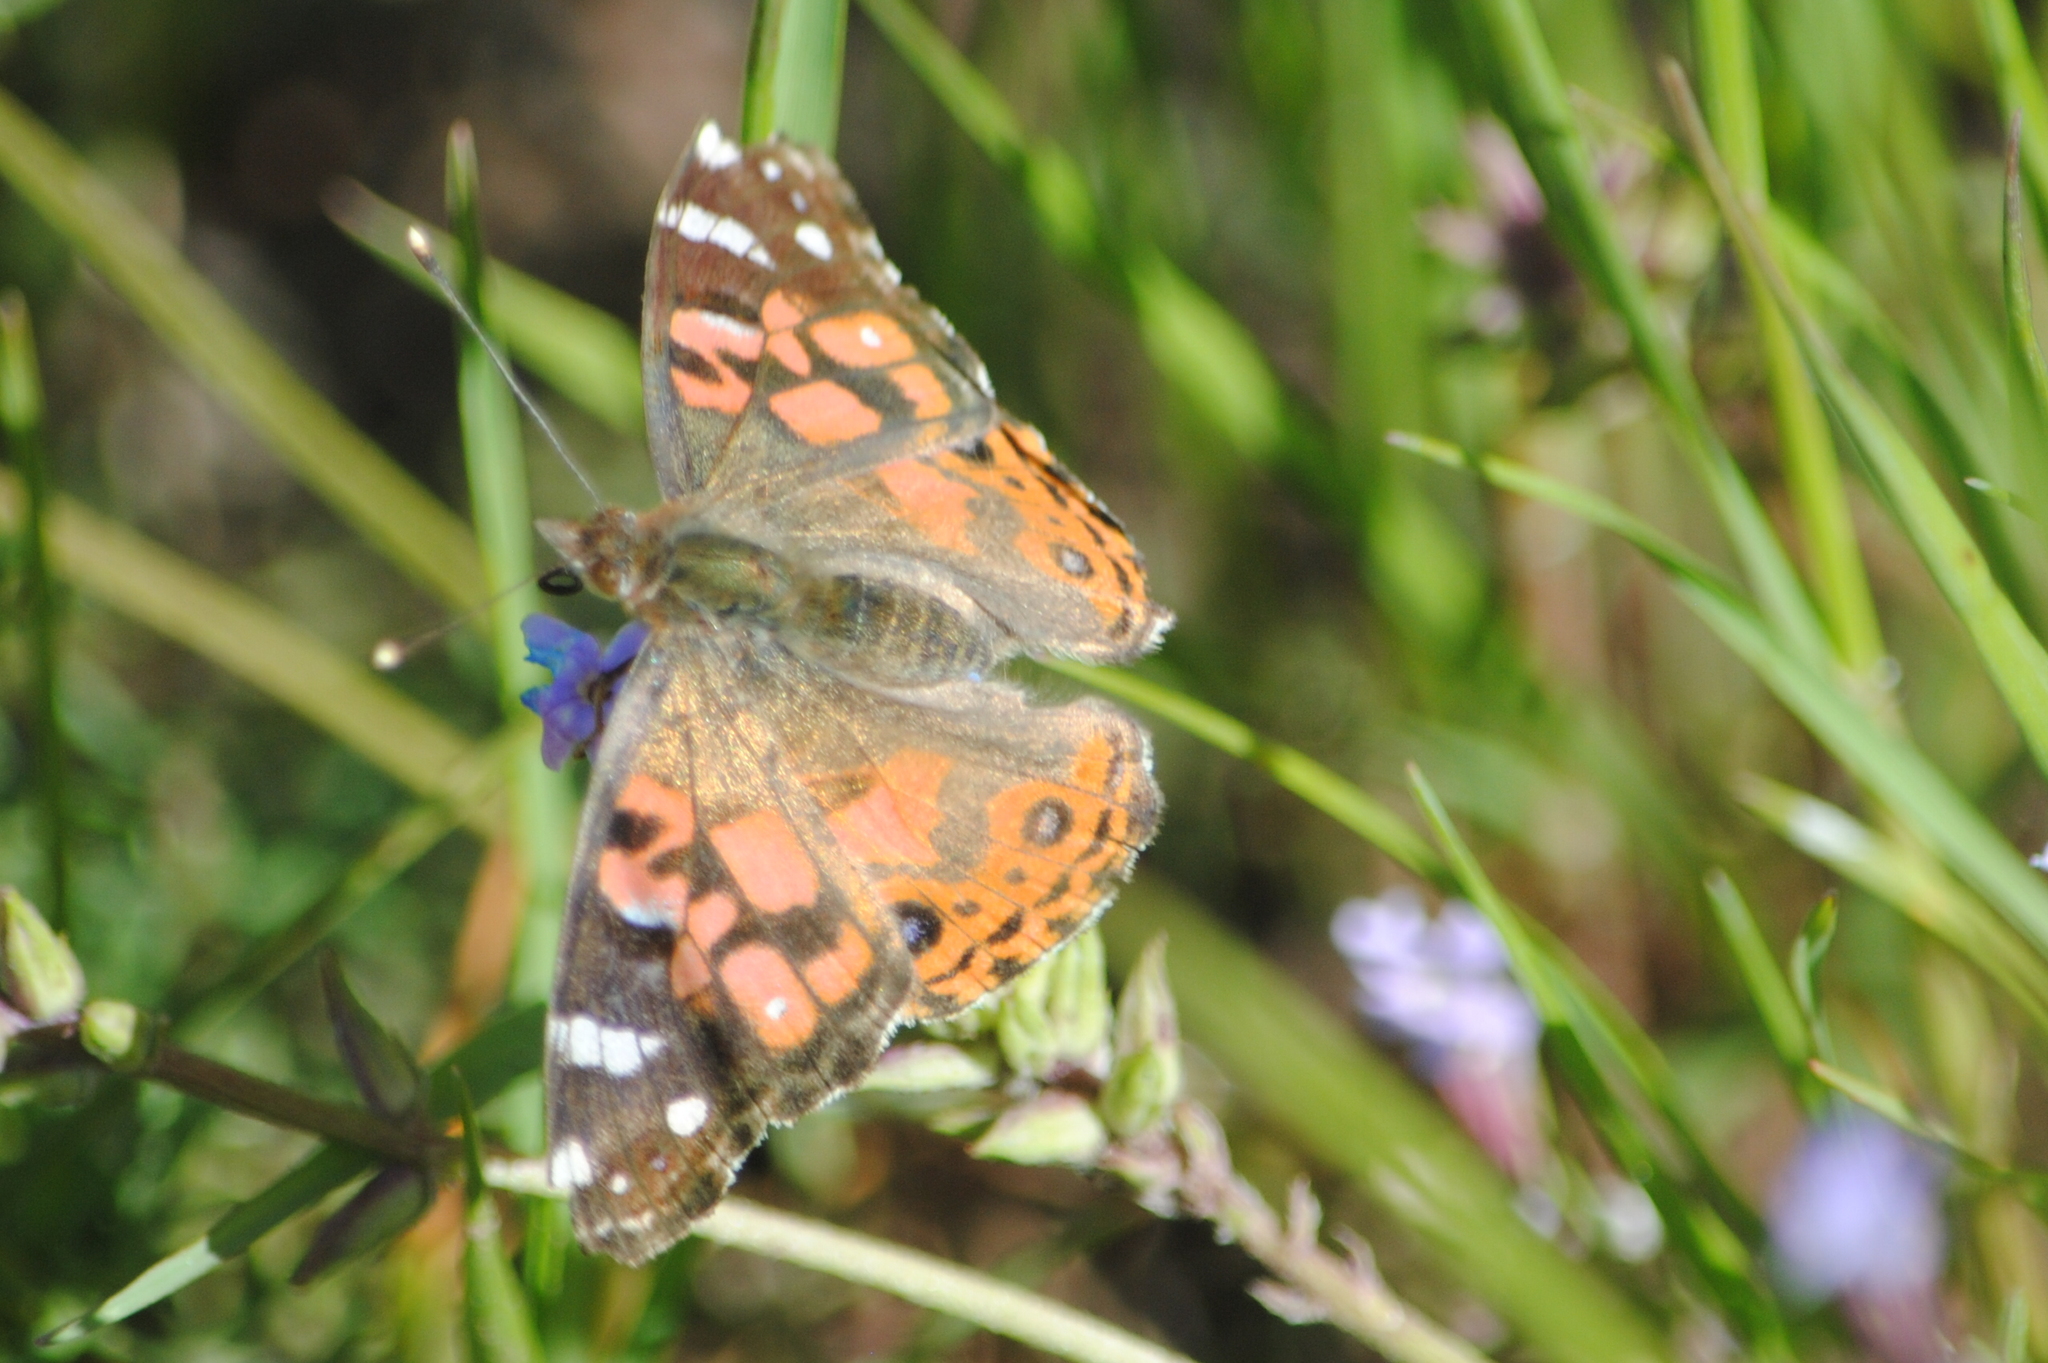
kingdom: Animalia
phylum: Arthropoda
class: Insecta
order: Lepidoptera
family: Nymphalidae
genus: Vanessa
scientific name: Vanessa braziliensis
